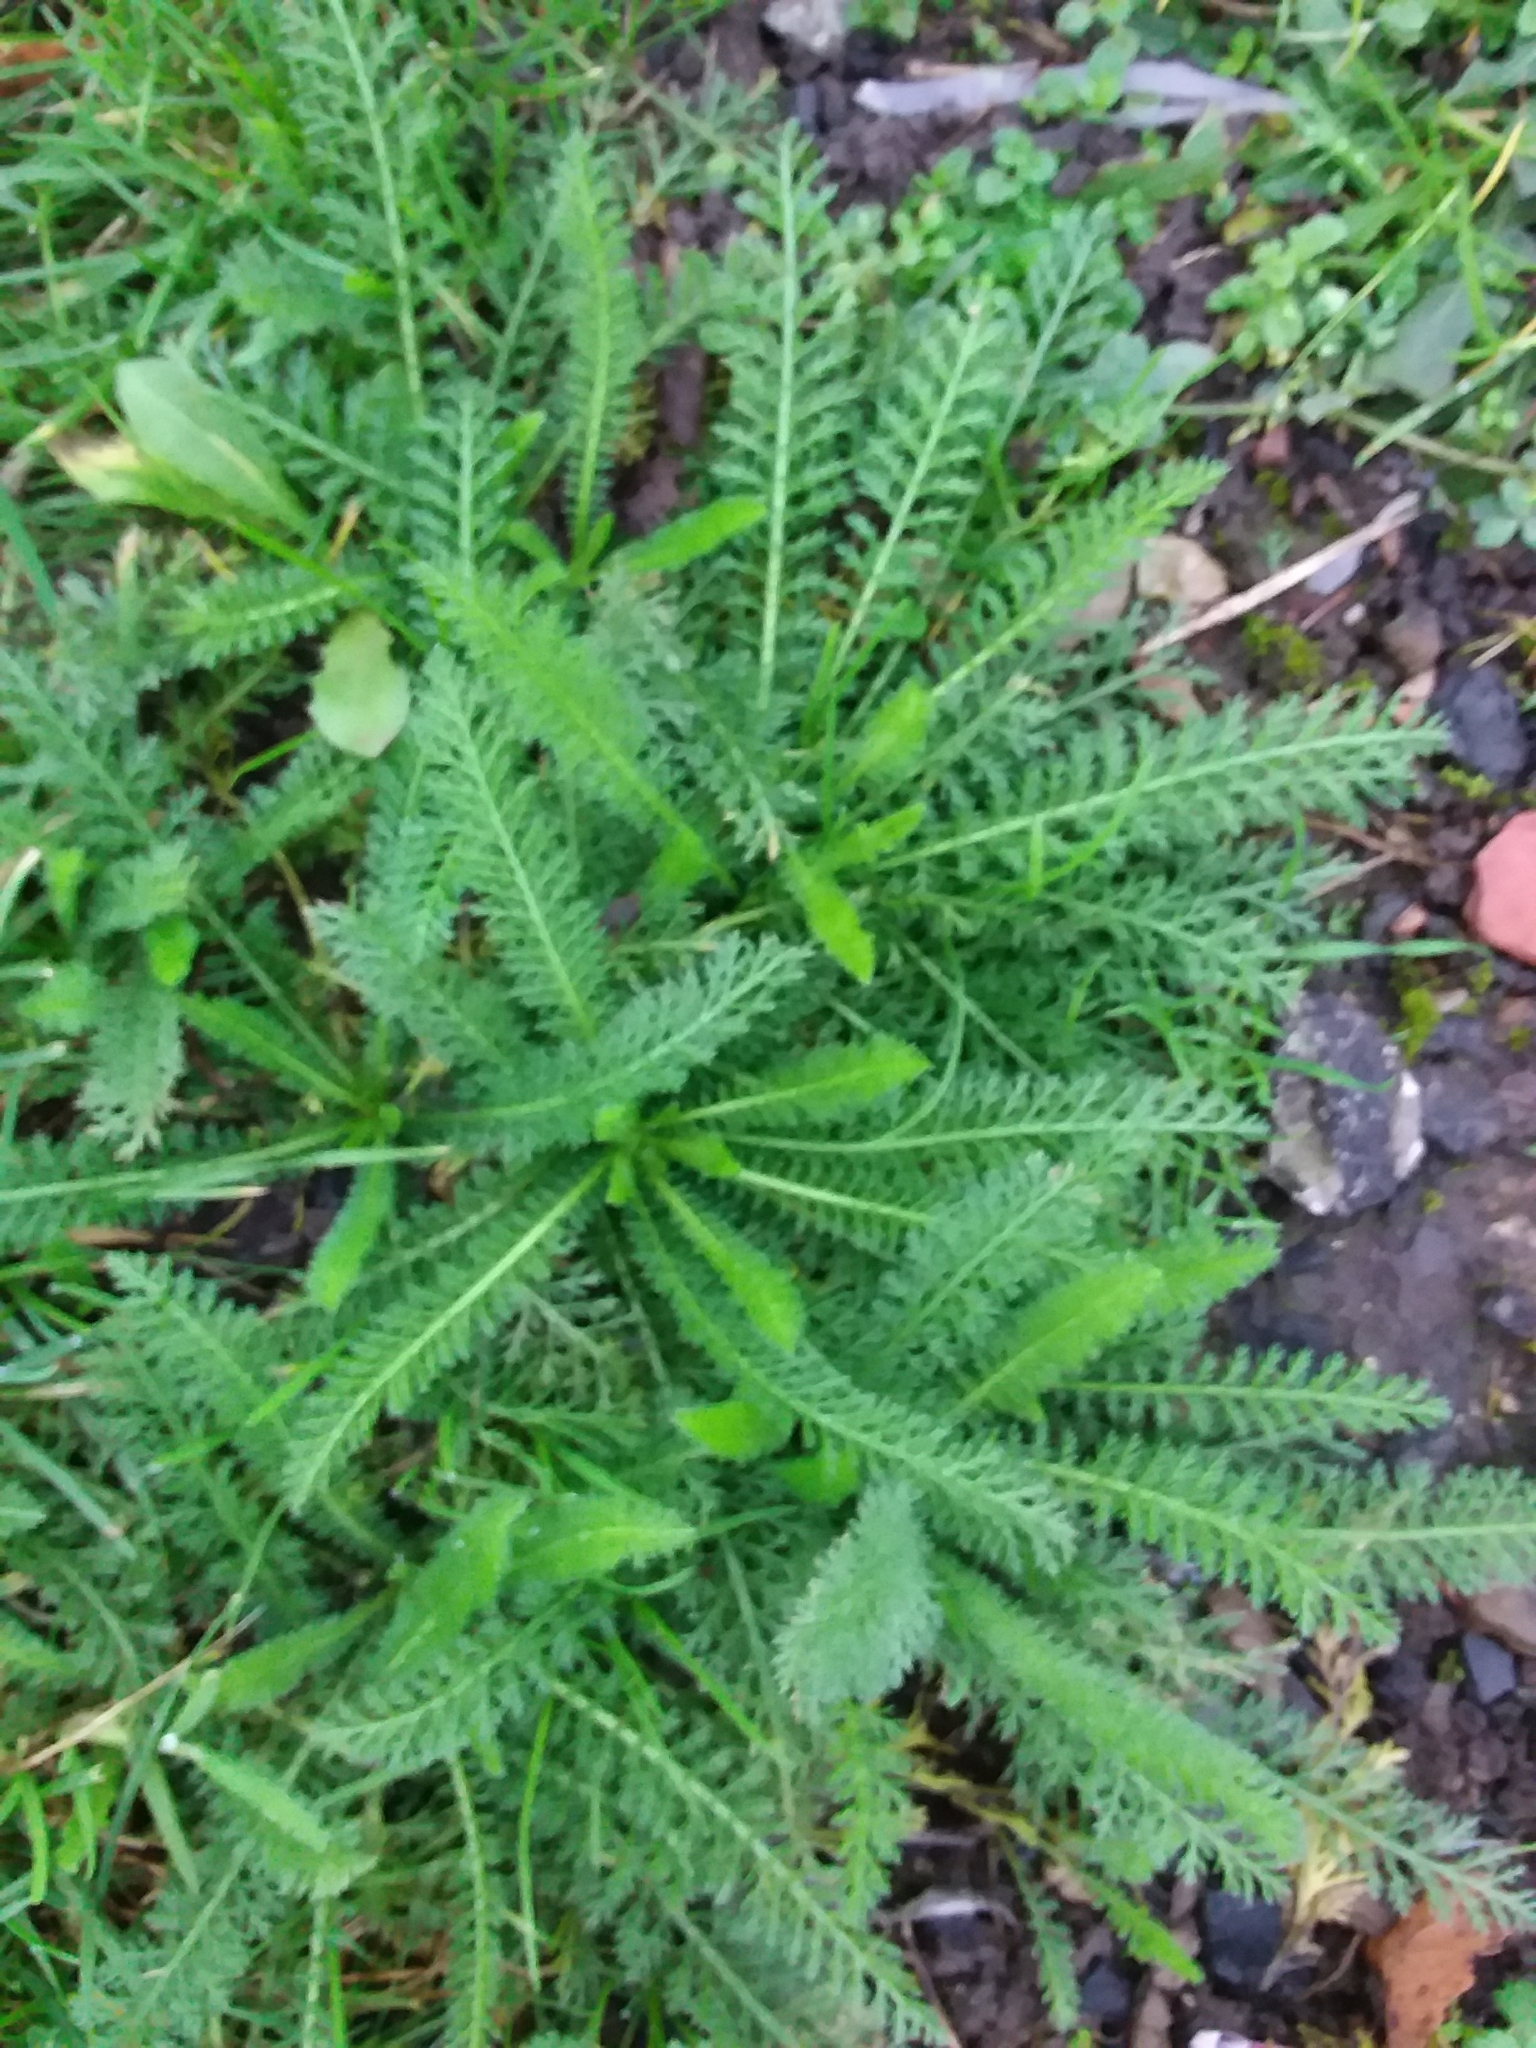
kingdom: Plantae
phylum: Tracheophyta
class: Magnoliopsida
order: Asterales
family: Asteraceae
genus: Achillea
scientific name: Achillea millefolium
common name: Yarrow
